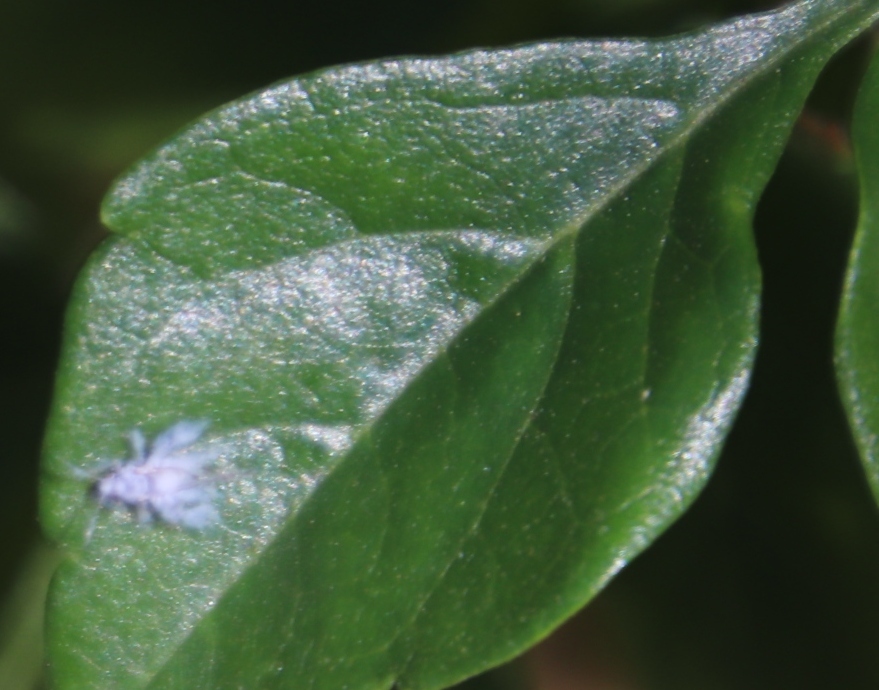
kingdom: Animalia
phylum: Arthropoda
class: Insecta
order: Hemiptera
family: Aphididae
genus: Shivaphis
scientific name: Shivaphis celti
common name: Asian wooly hackberry aphid
